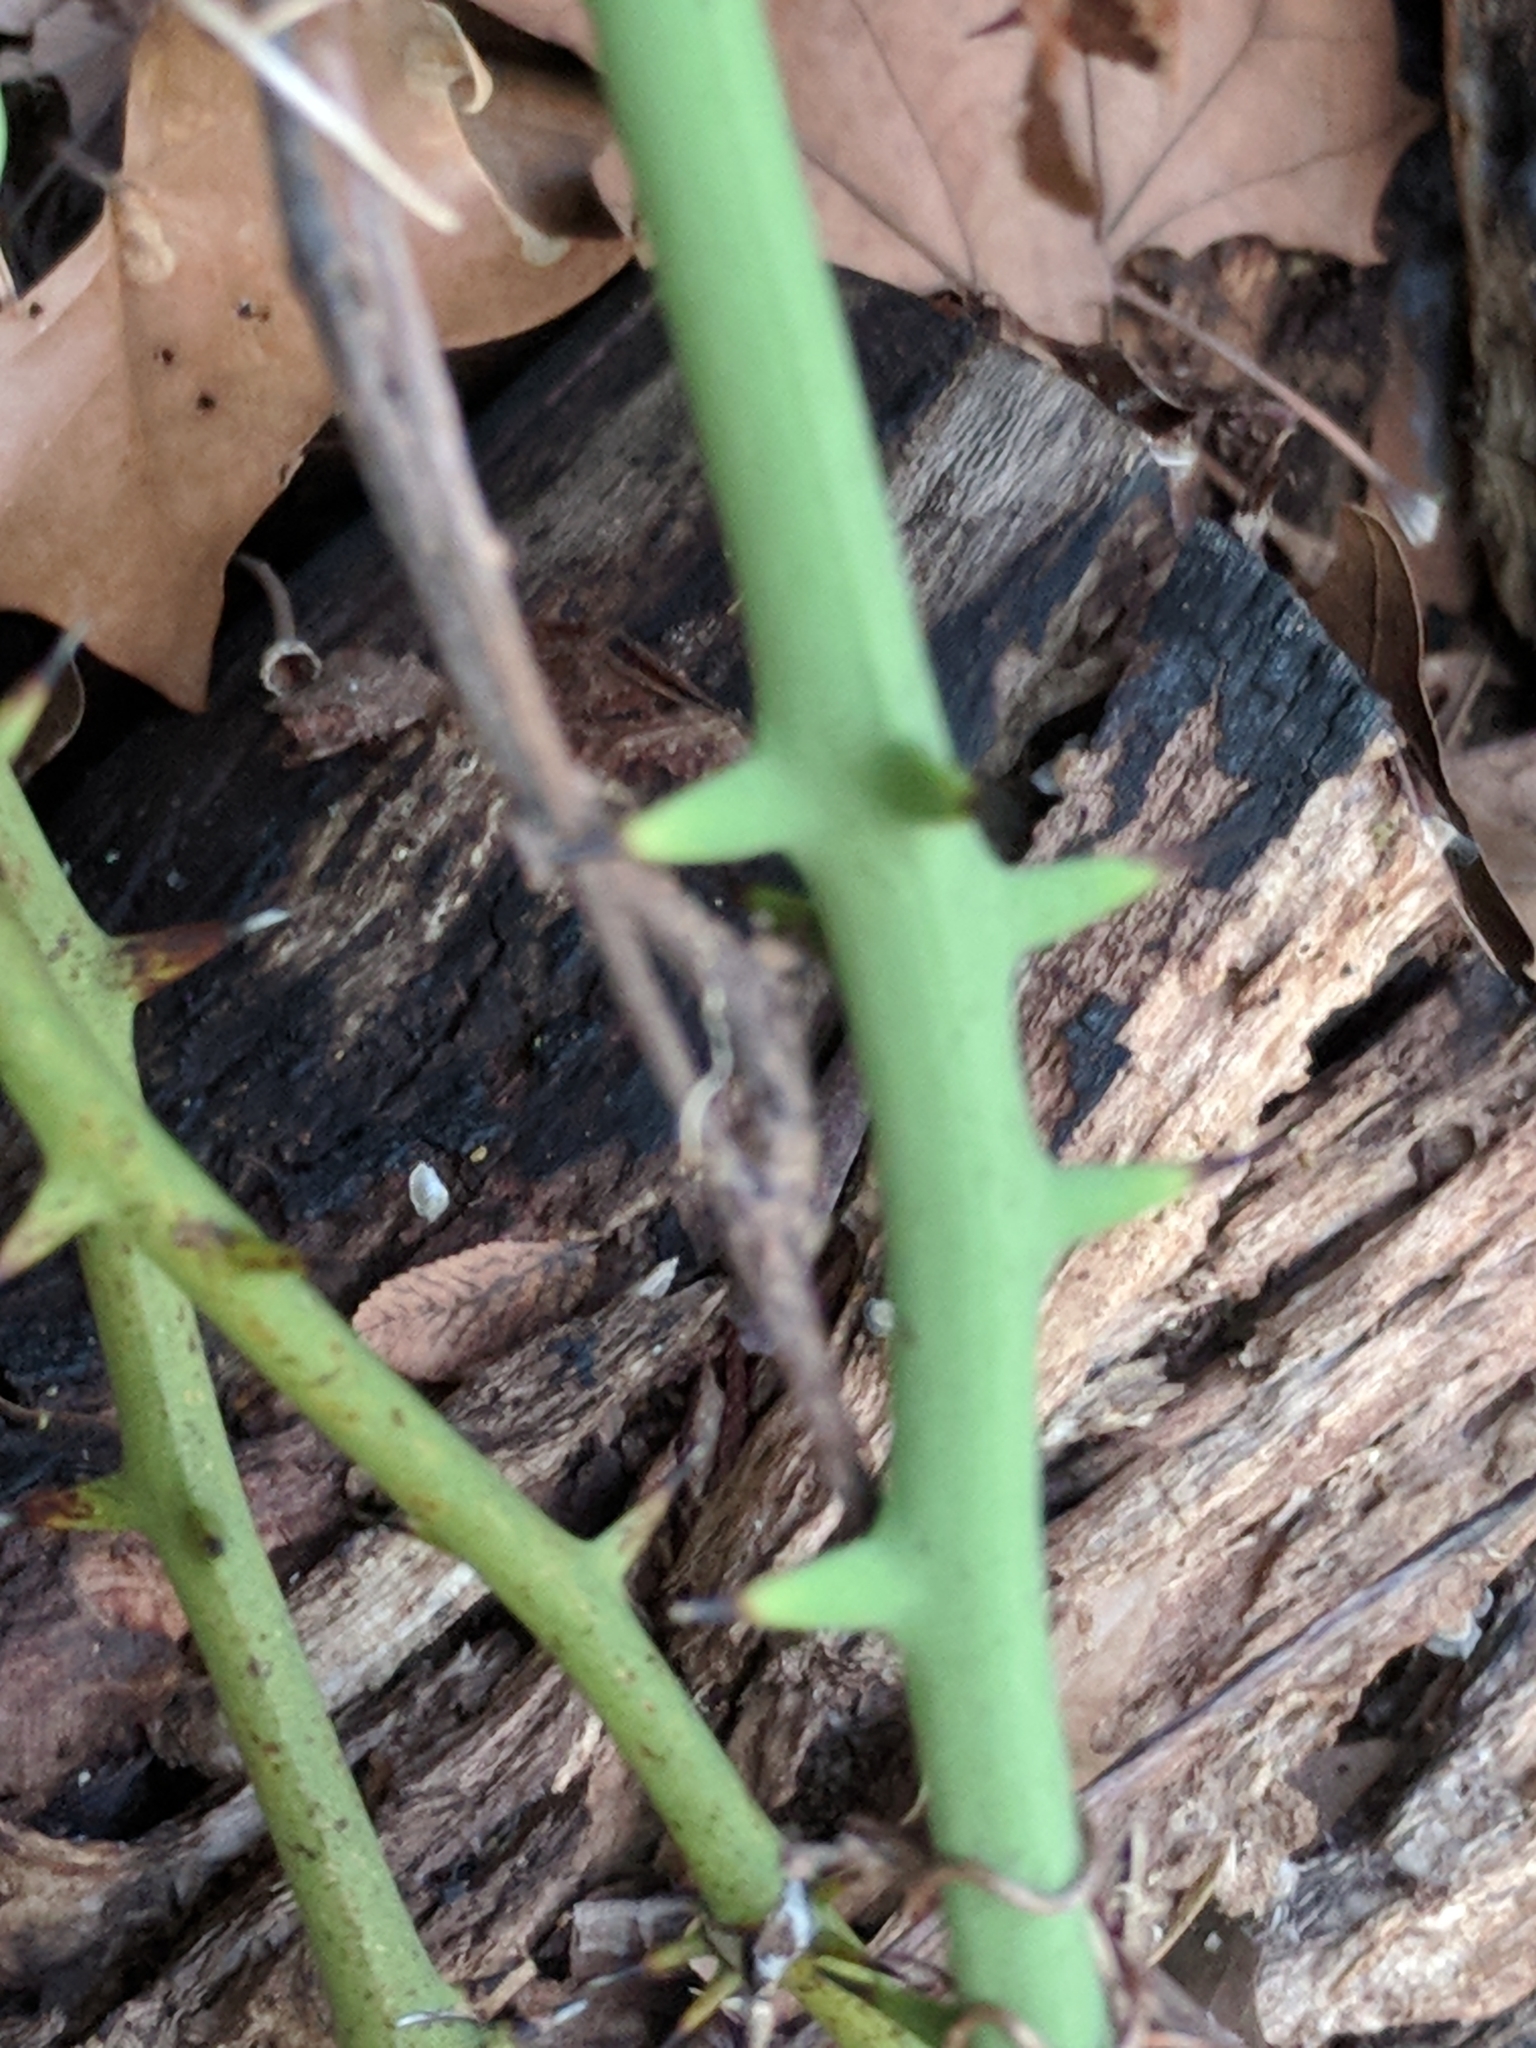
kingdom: Plantae
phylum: Tracheophyta
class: Liliopsida
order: Liliales
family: Smilacaceae
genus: Smilax
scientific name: Smilax bona-nox
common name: Catbrier
